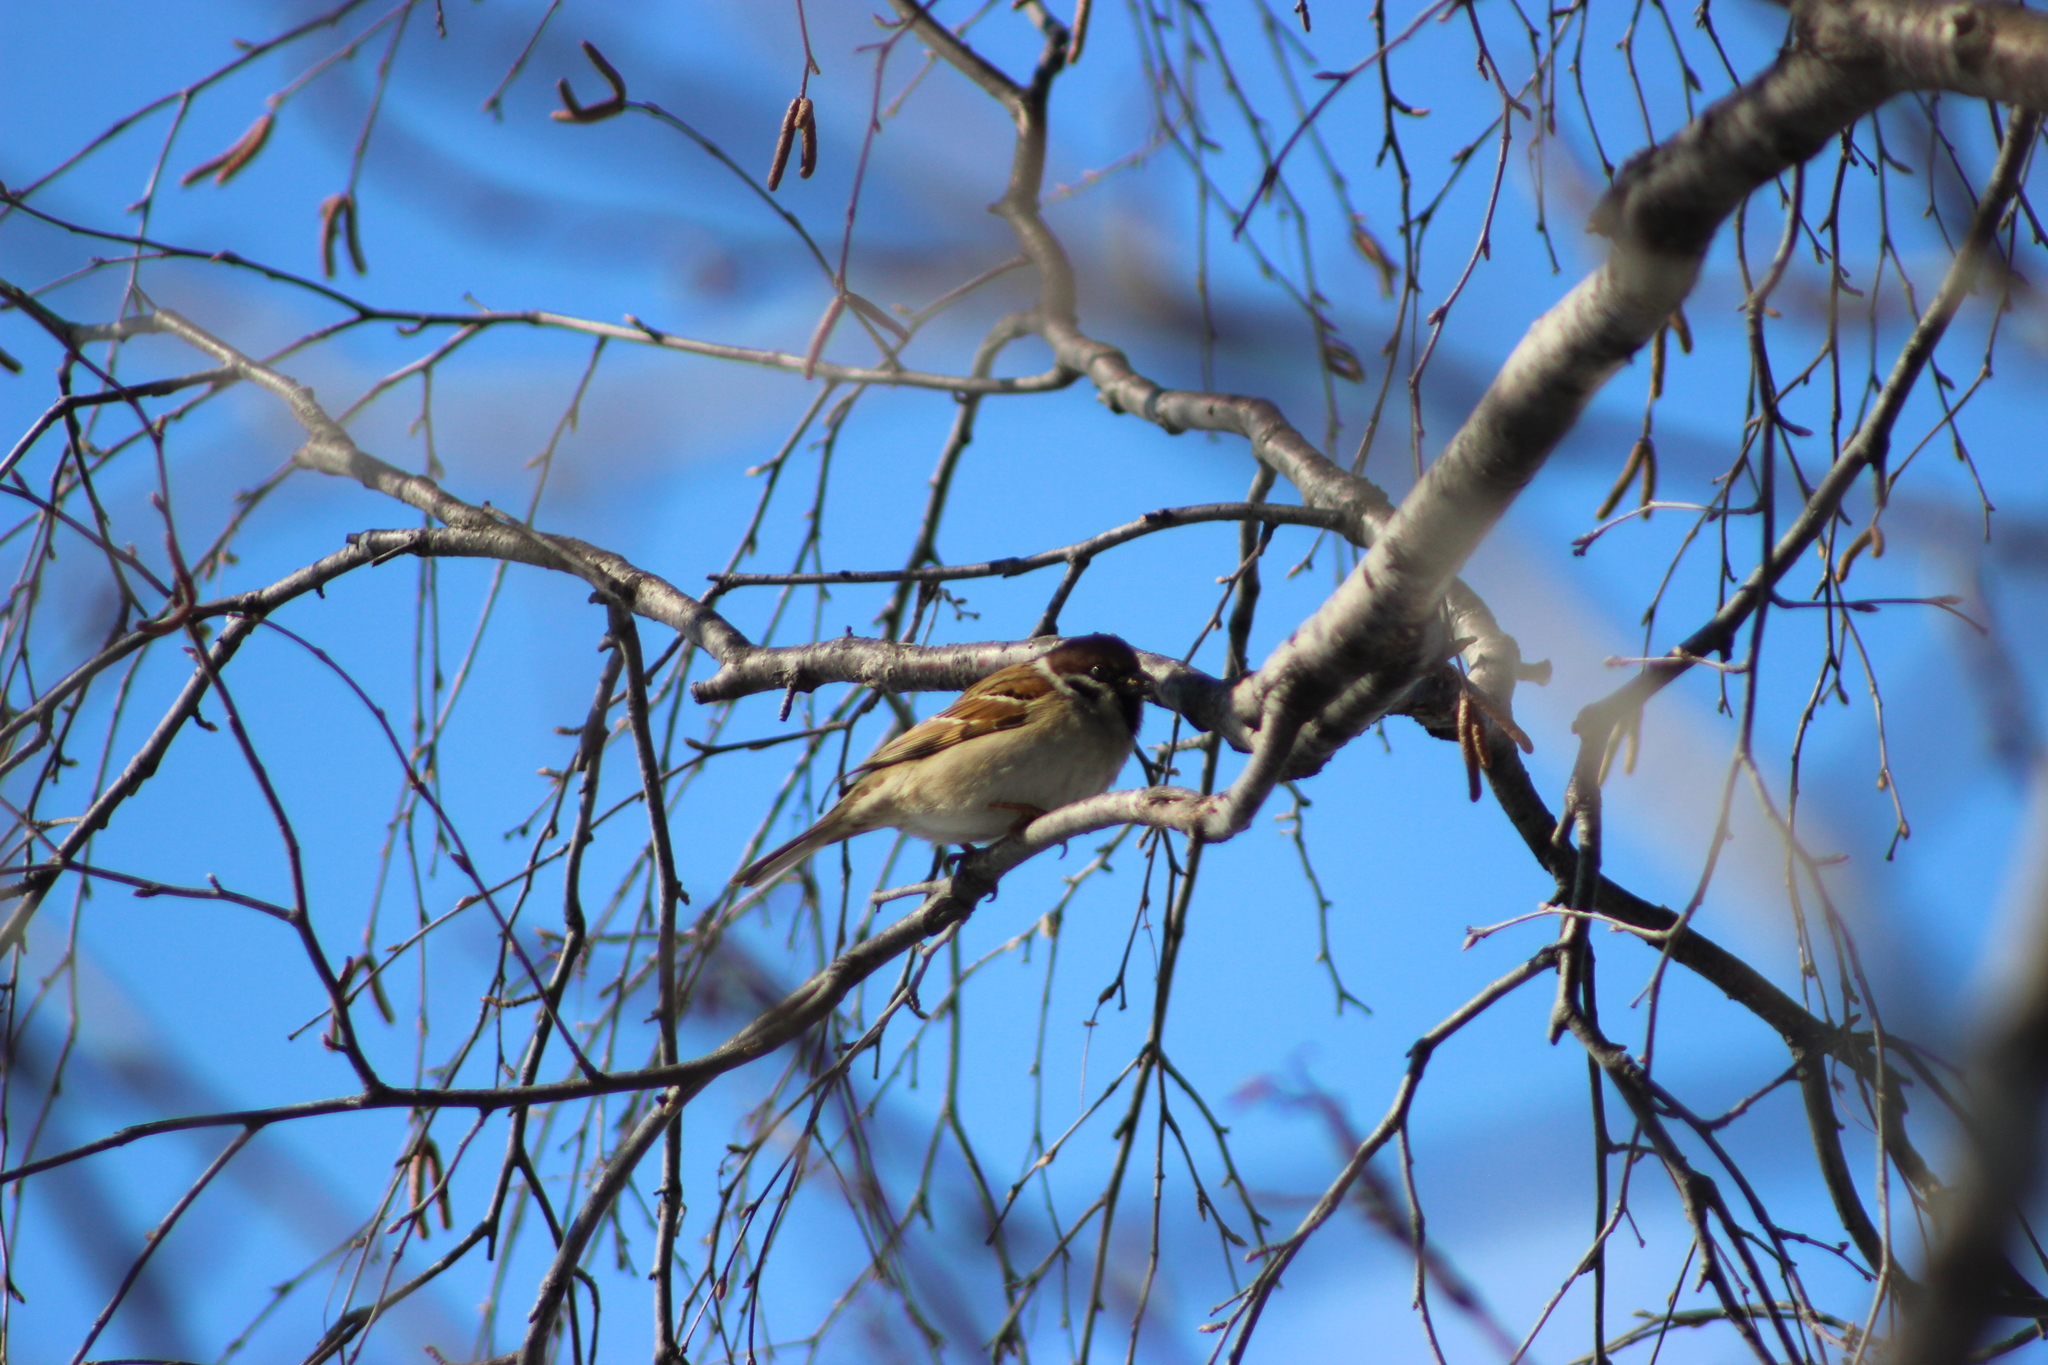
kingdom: Animalia
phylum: Chordata
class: Aves
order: Passeriformes
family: Passeridae
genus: Passer
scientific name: Passer montanus
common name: Eurasian tree sparrow
